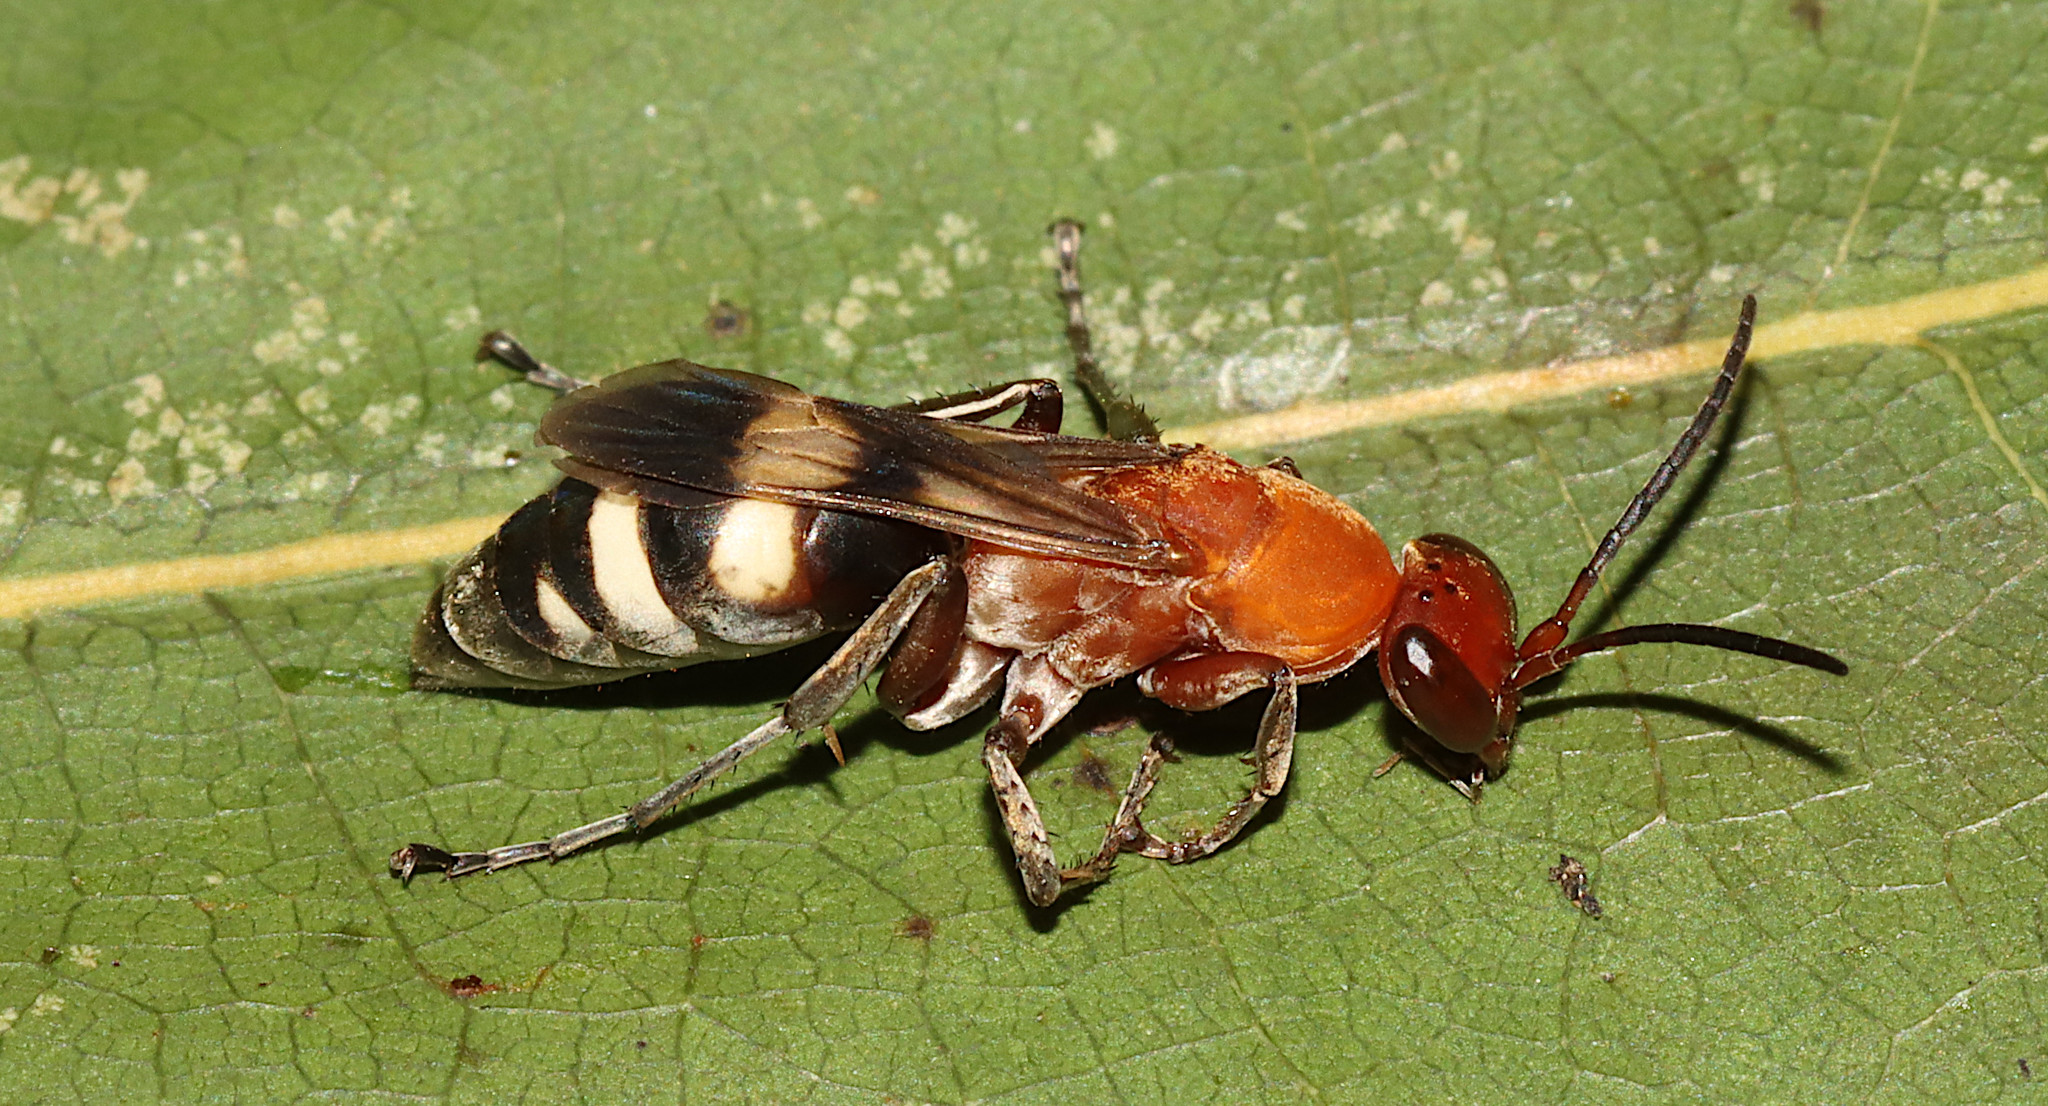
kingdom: Animalia
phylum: Arthropoda
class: Insecta
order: Hymenoptera
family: Pompilidae
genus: Psorthaspis
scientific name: Psorthaspis luctuosa
